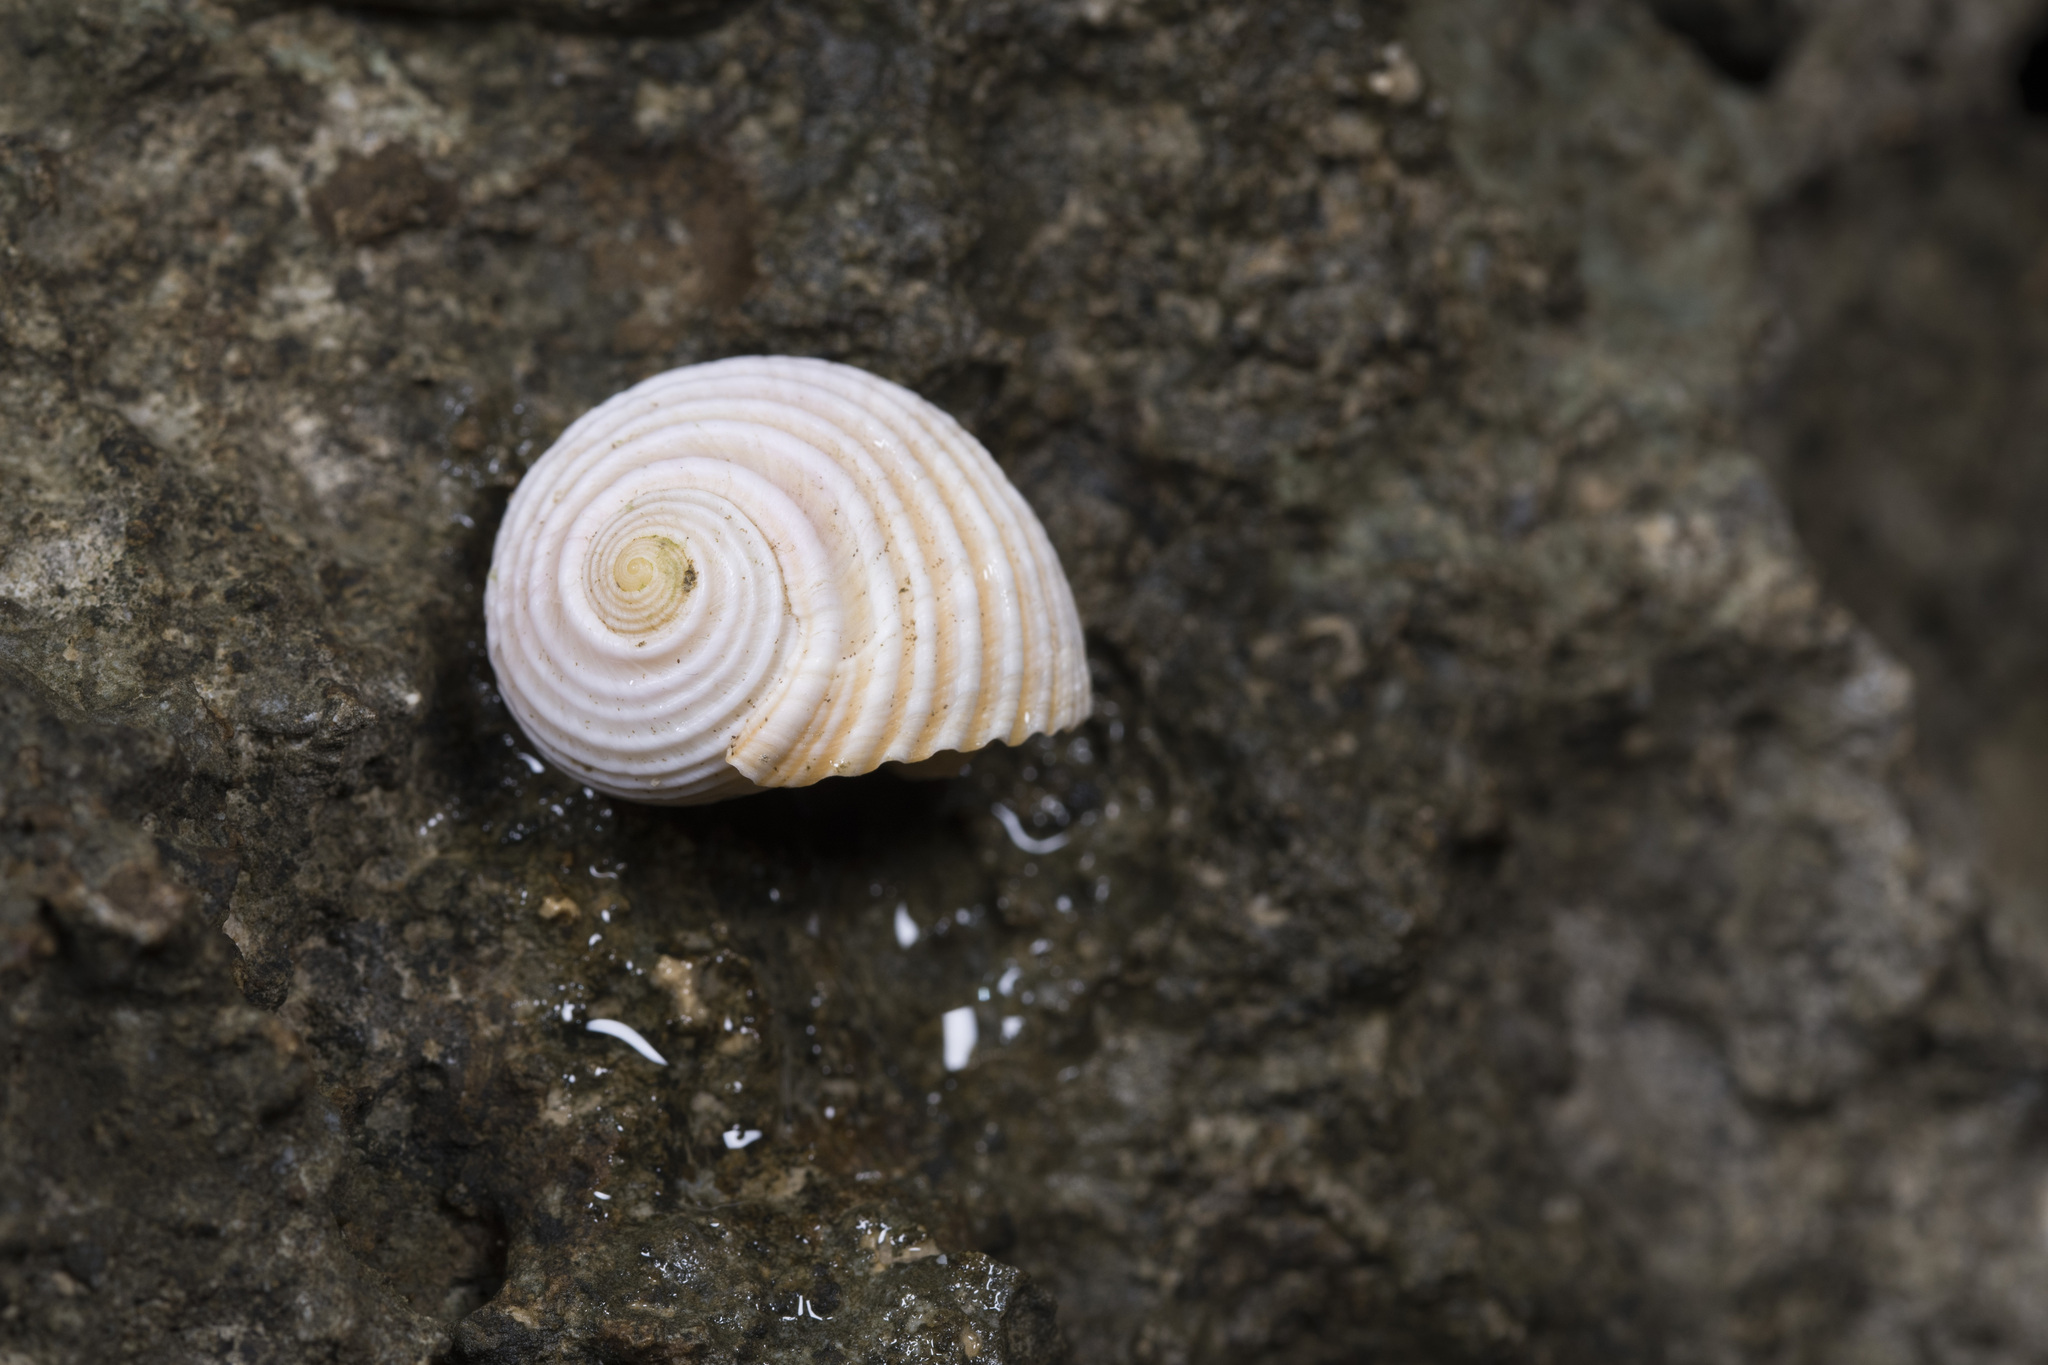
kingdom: Animalia
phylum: Mollusca
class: Gastropoda
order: Cycloneritida
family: Neritidae
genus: Nerita
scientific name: Nerita plicata
